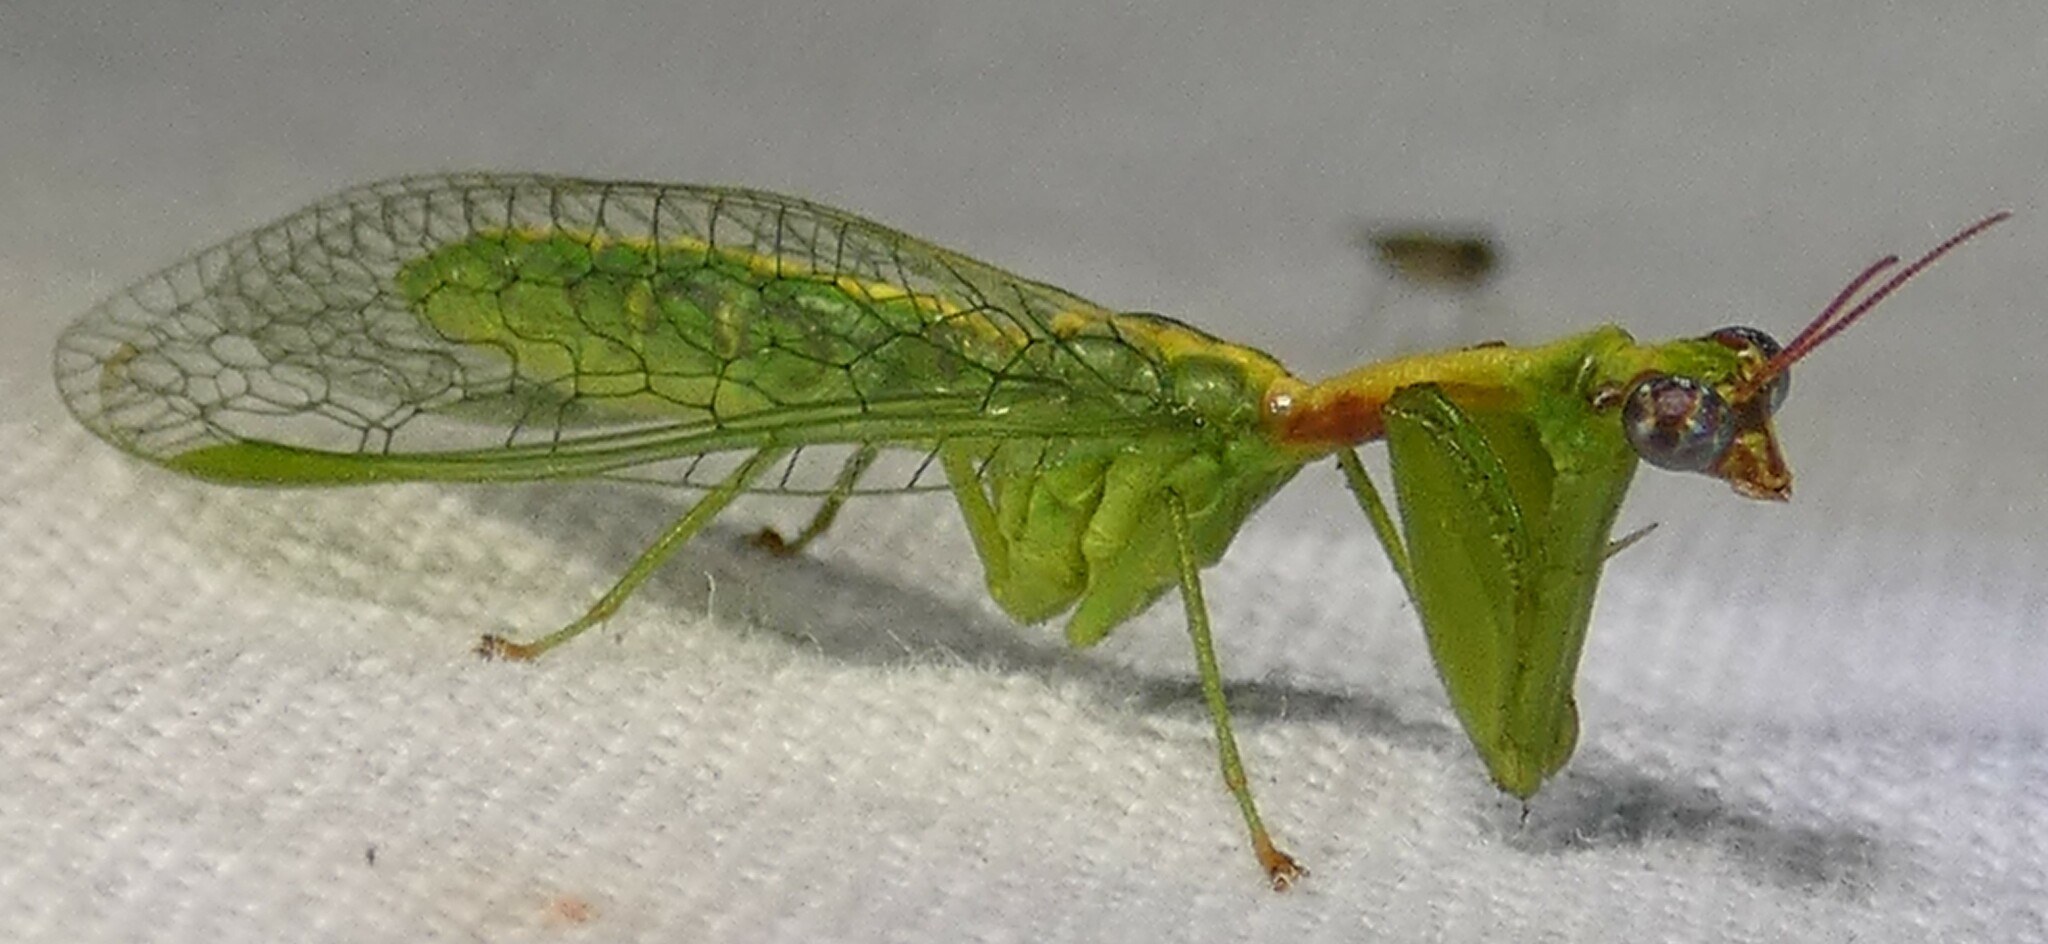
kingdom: Animalia
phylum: Arthropoda
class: Insecta
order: Neuroptera
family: Mantispidae
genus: Zeugomantispa
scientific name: Zeugomantispa minuta
